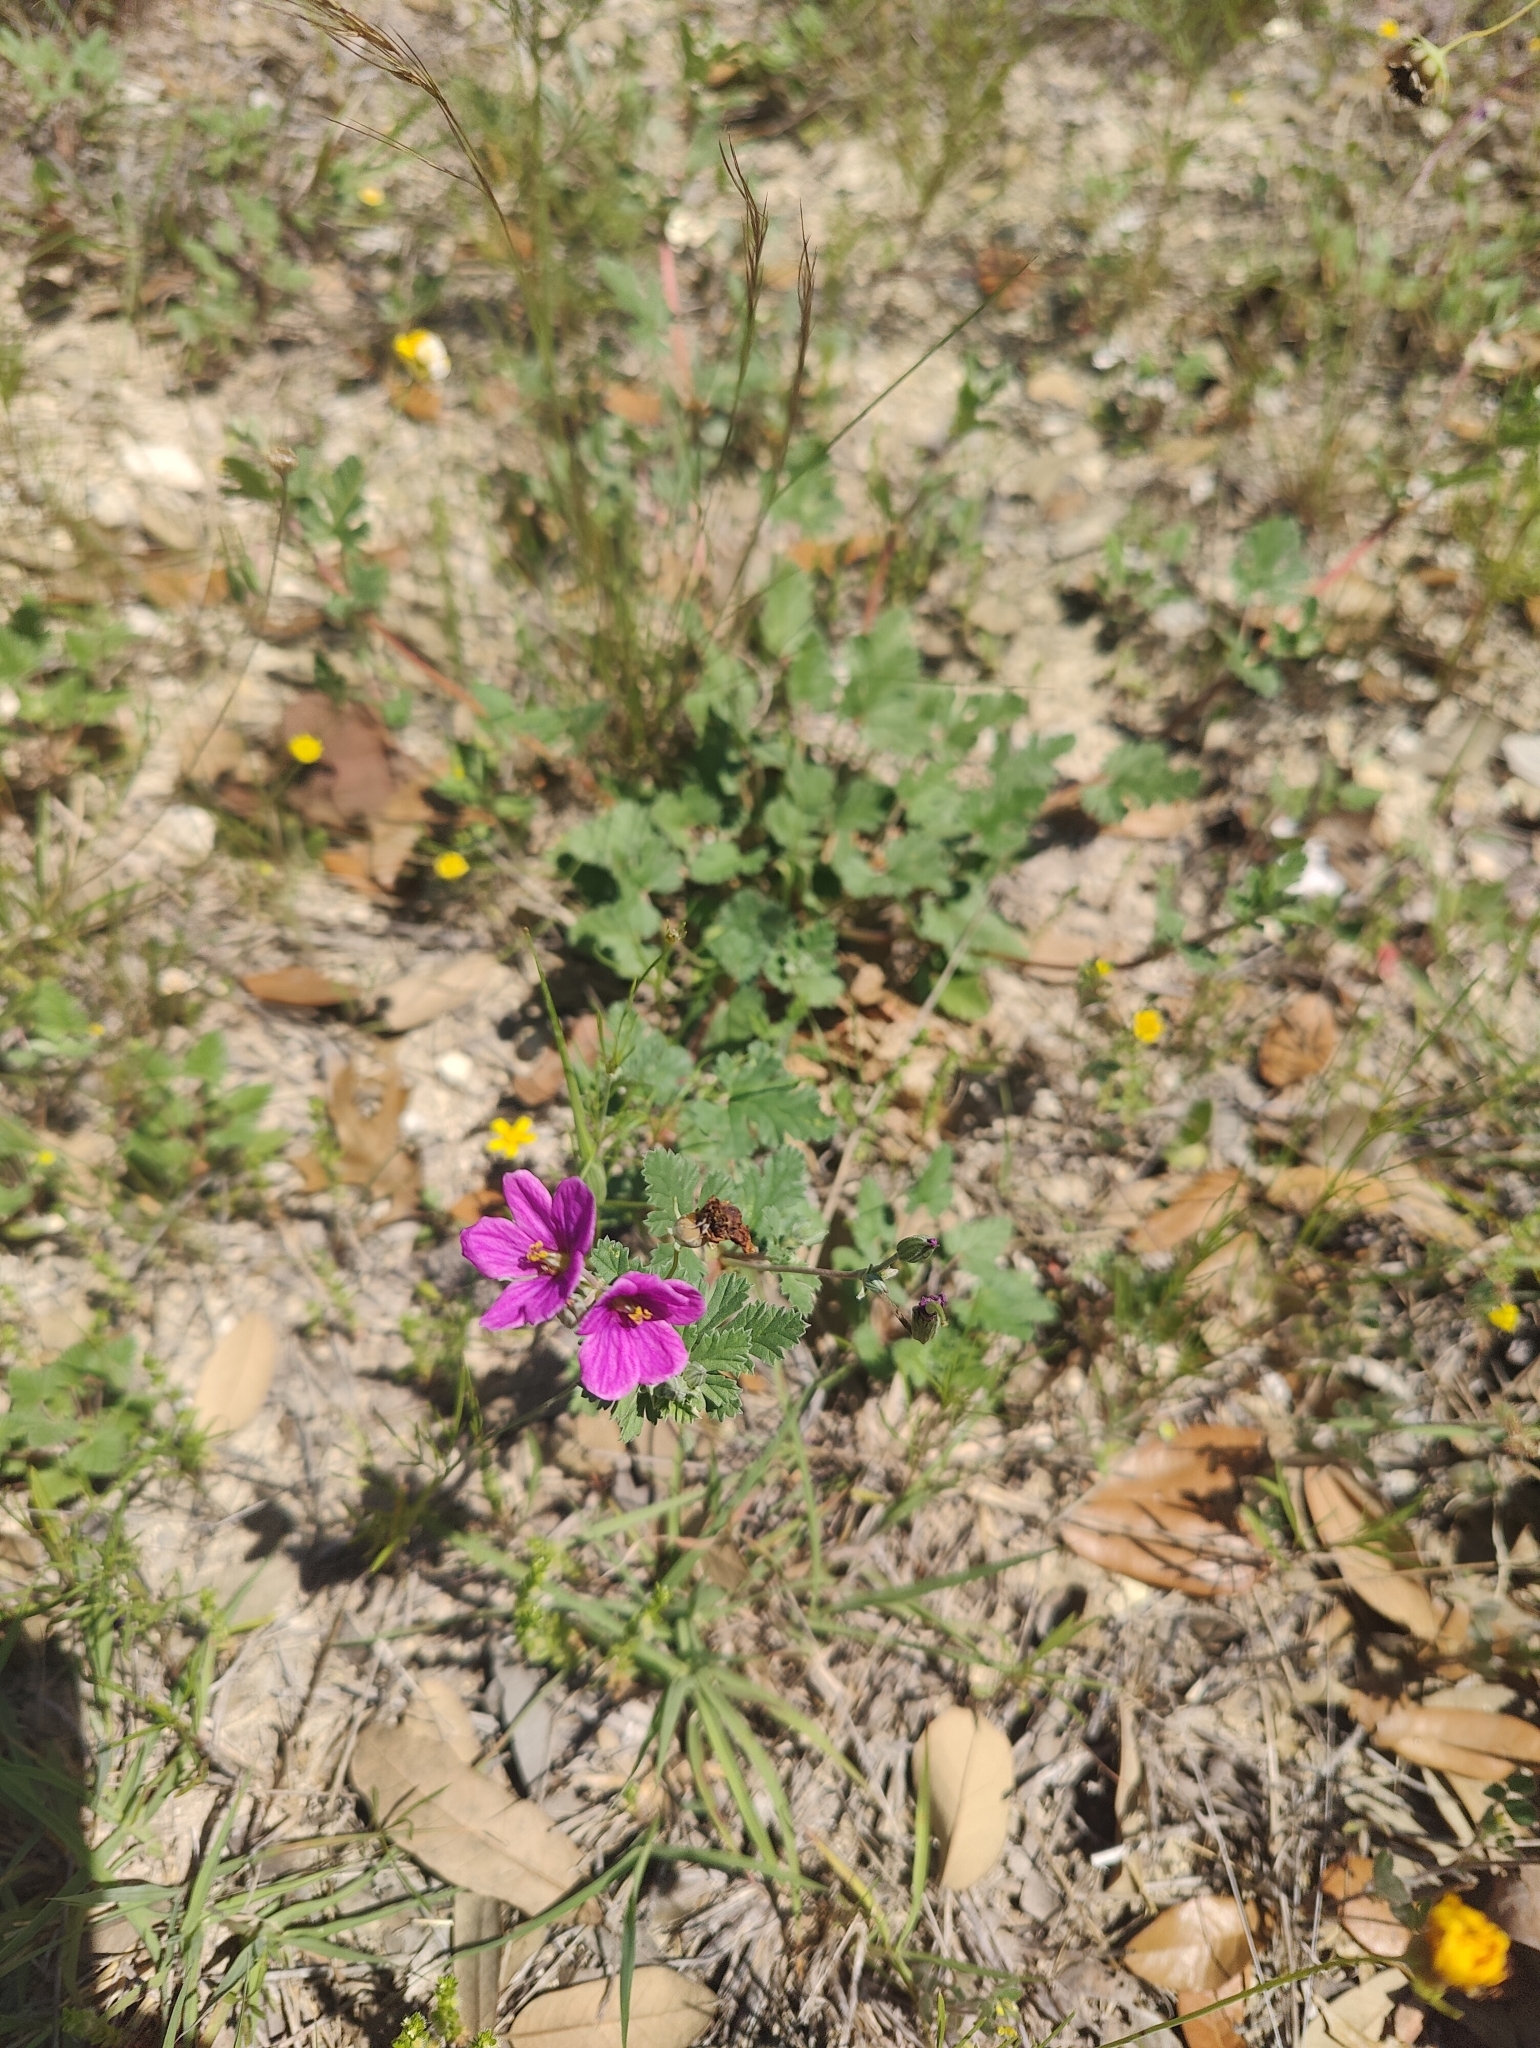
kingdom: Plantae
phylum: Tracheophyta
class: Magnoliopsida
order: Geraniales
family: Geraniaceae
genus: Erodium
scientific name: Erodium texanum
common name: Texas stork's-bill
